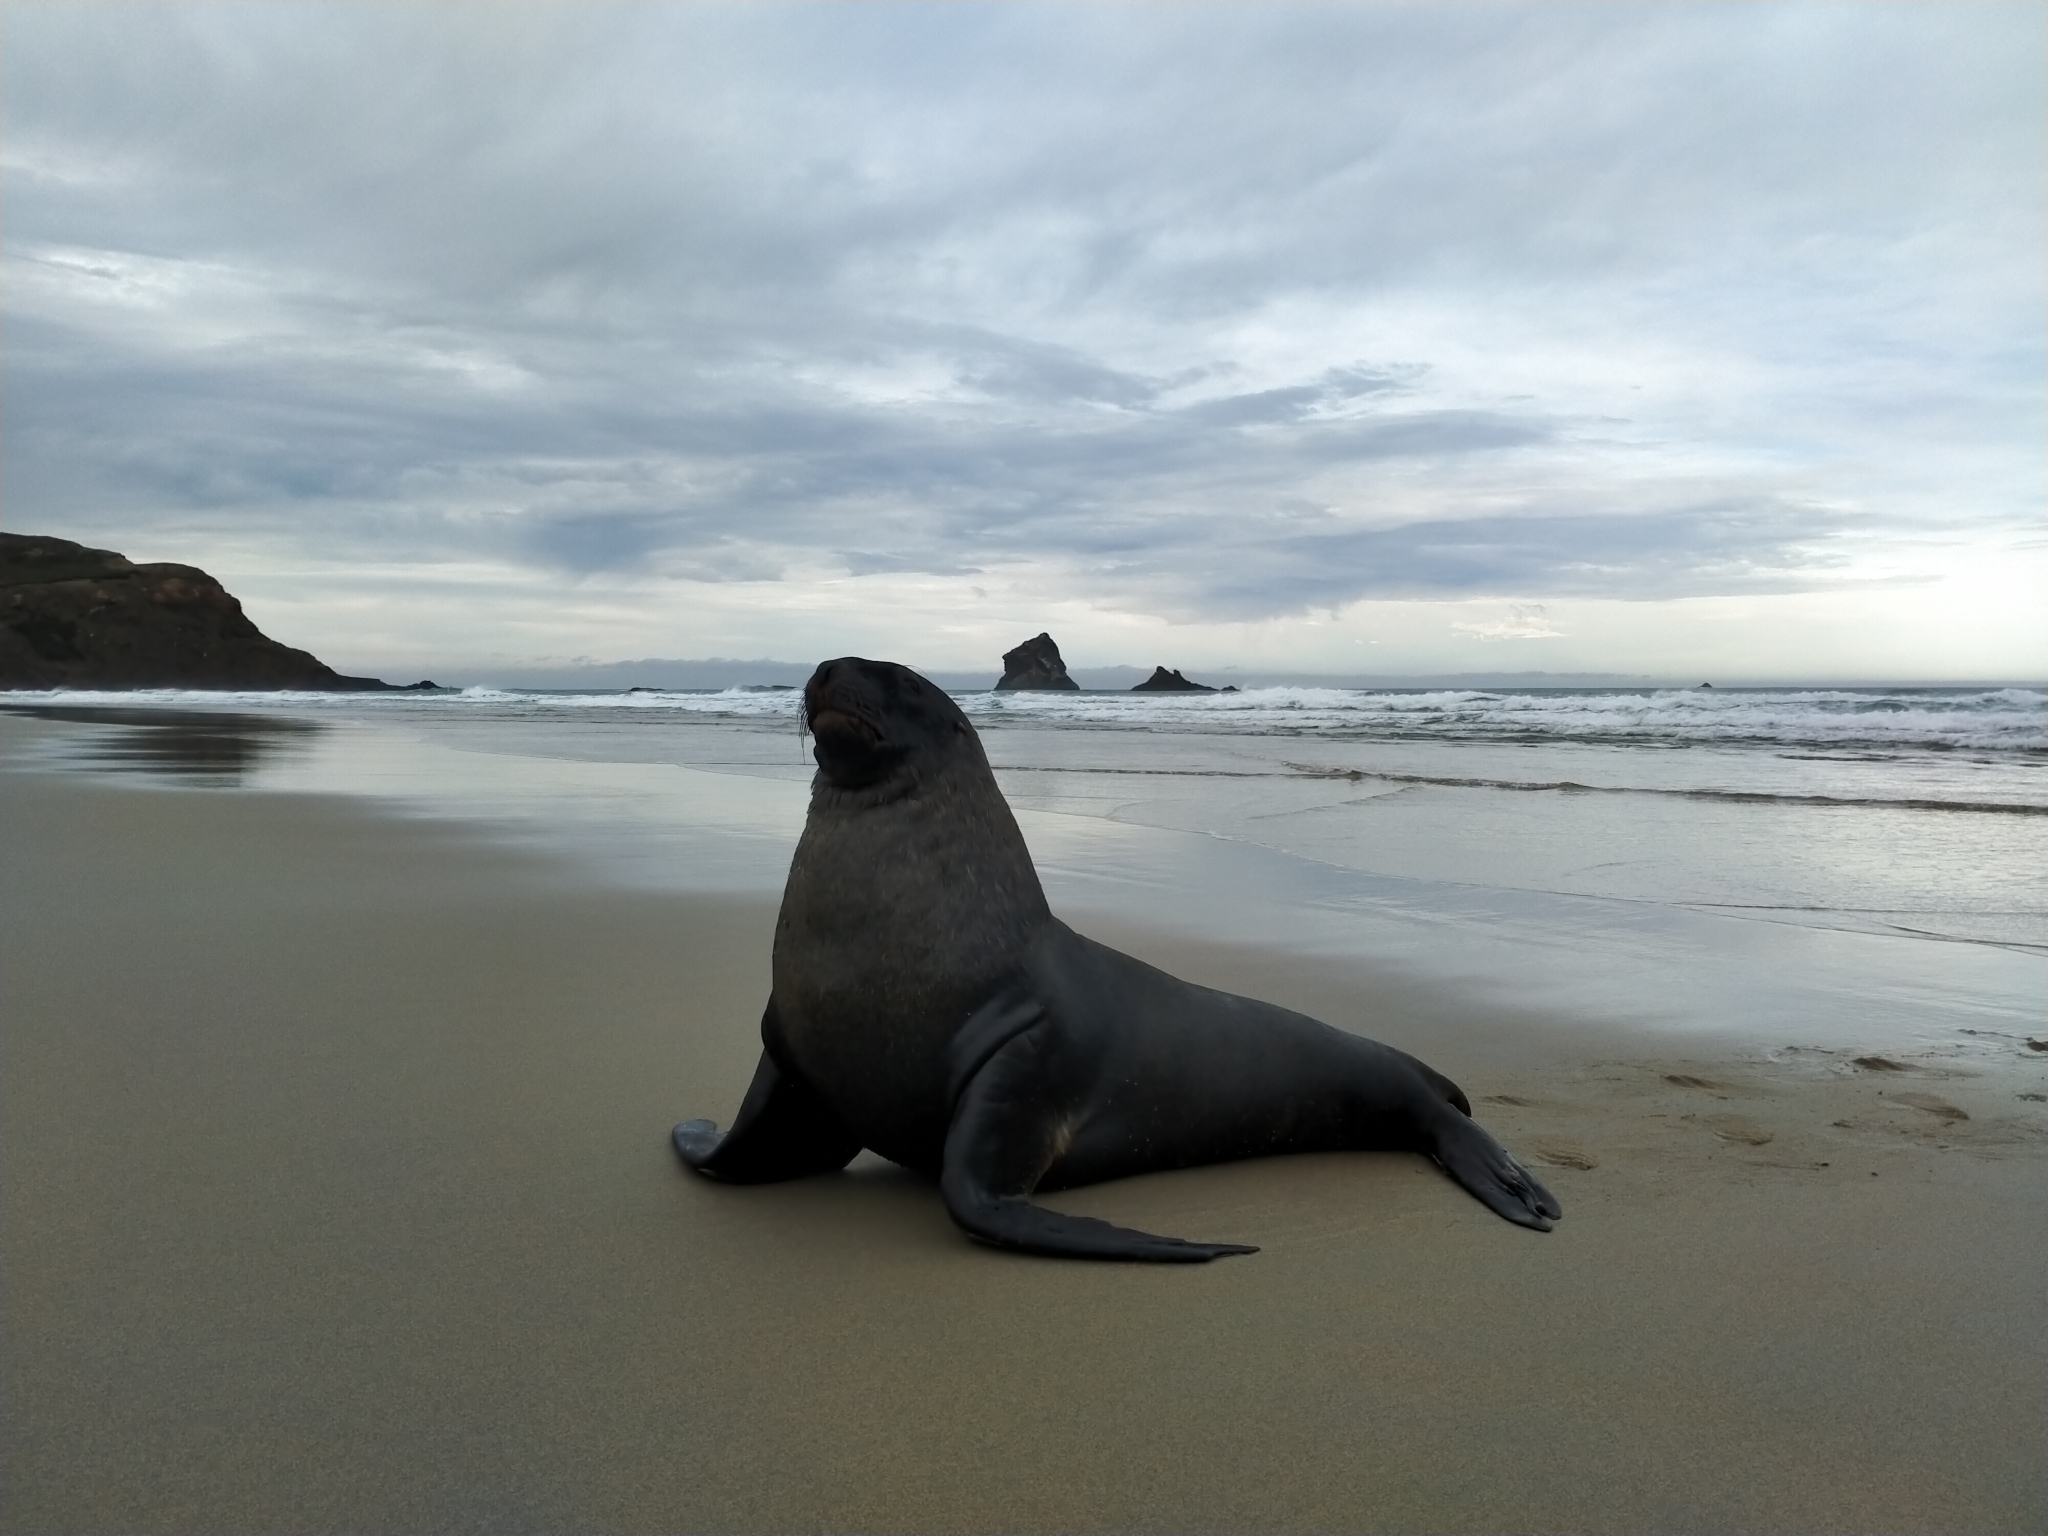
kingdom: Animalia
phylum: Chordata
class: Mammalia
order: Carnivora
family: Otariidae
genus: Phocarctos
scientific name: Phocarctos hookeri
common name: New zealand sea lion
